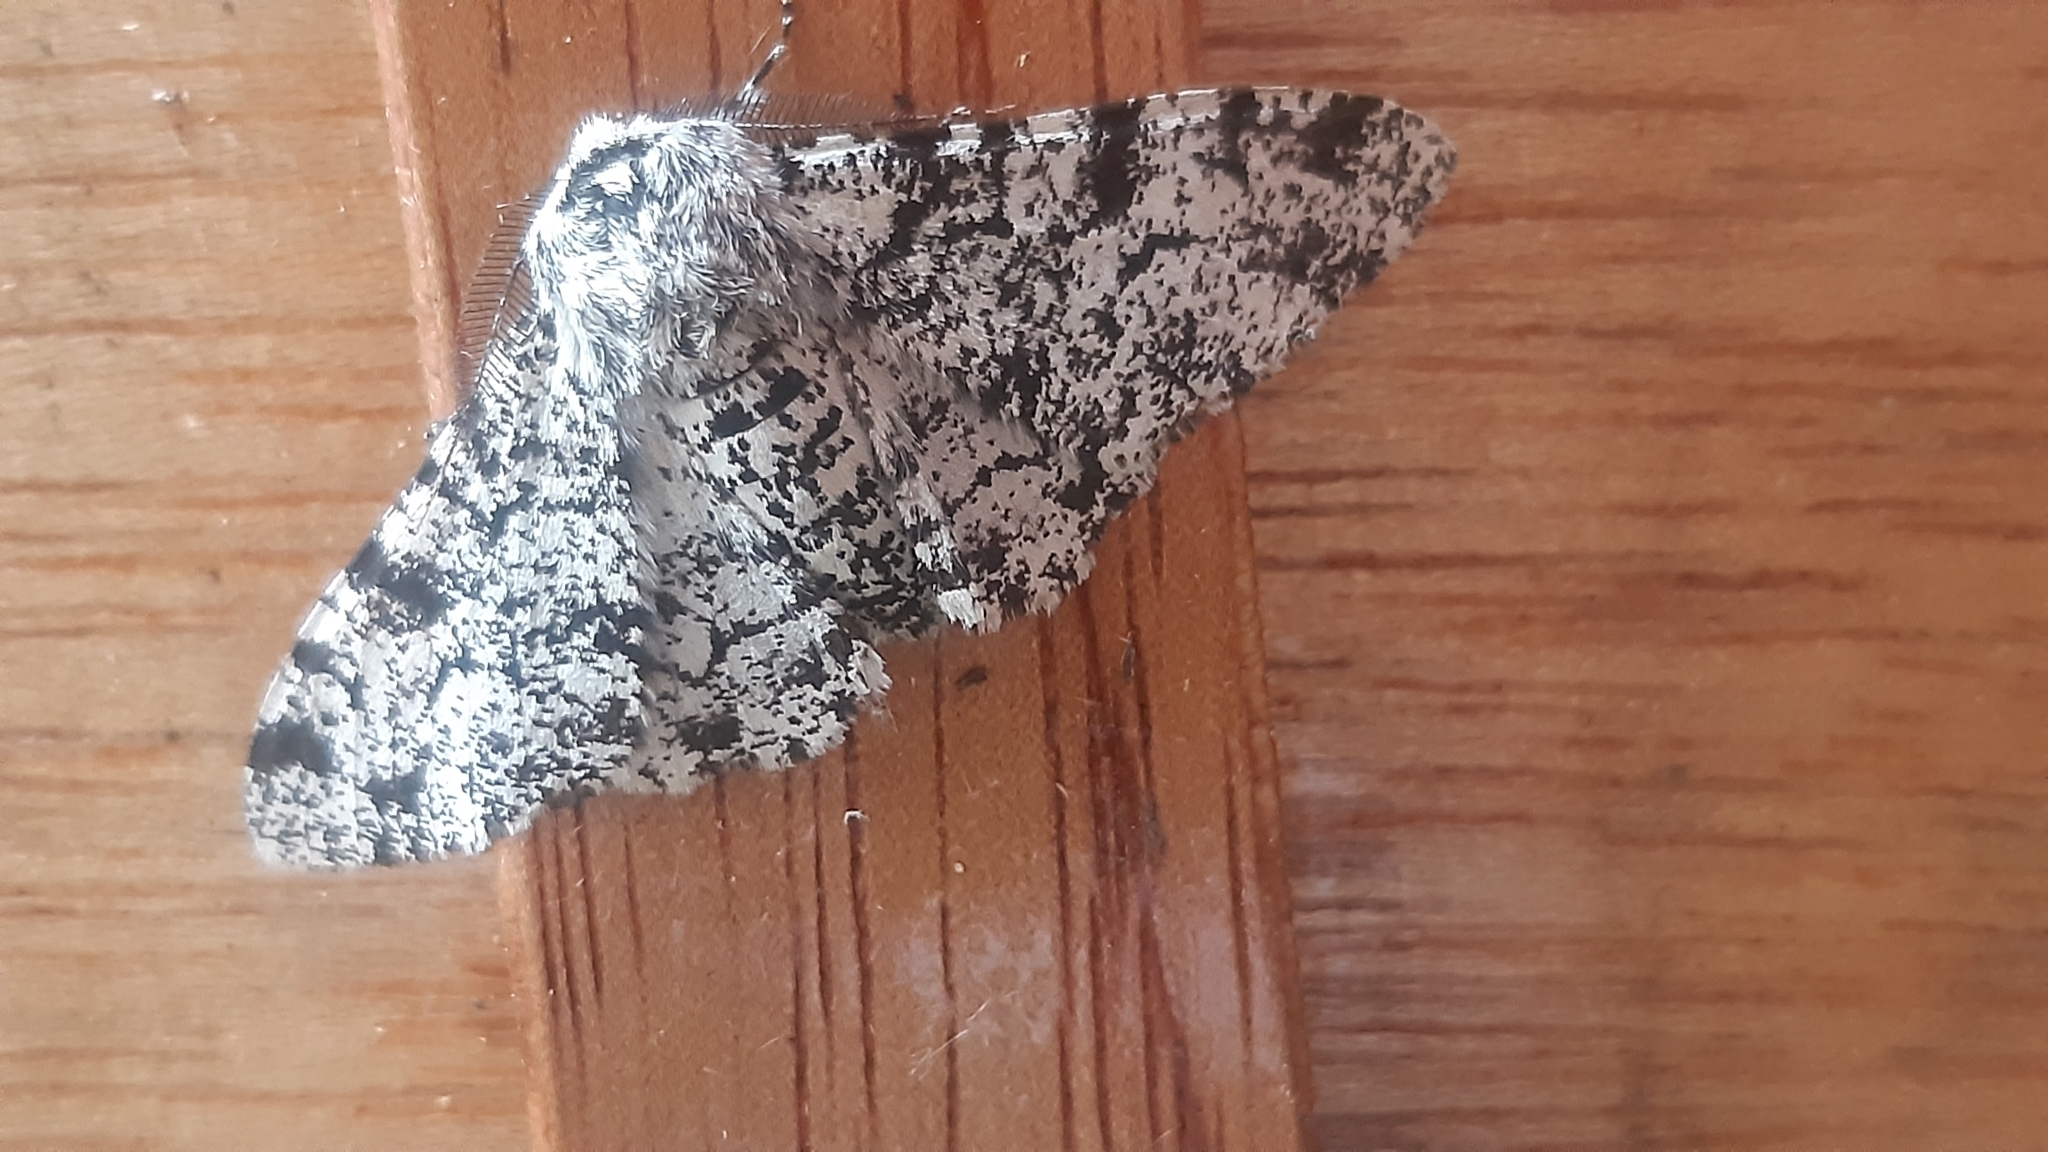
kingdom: Animalia
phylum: Arthropoda
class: Insecta
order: Lepidoptera
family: Geometridae
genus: Biston
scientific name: Biston betularia
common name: Peppered moth
